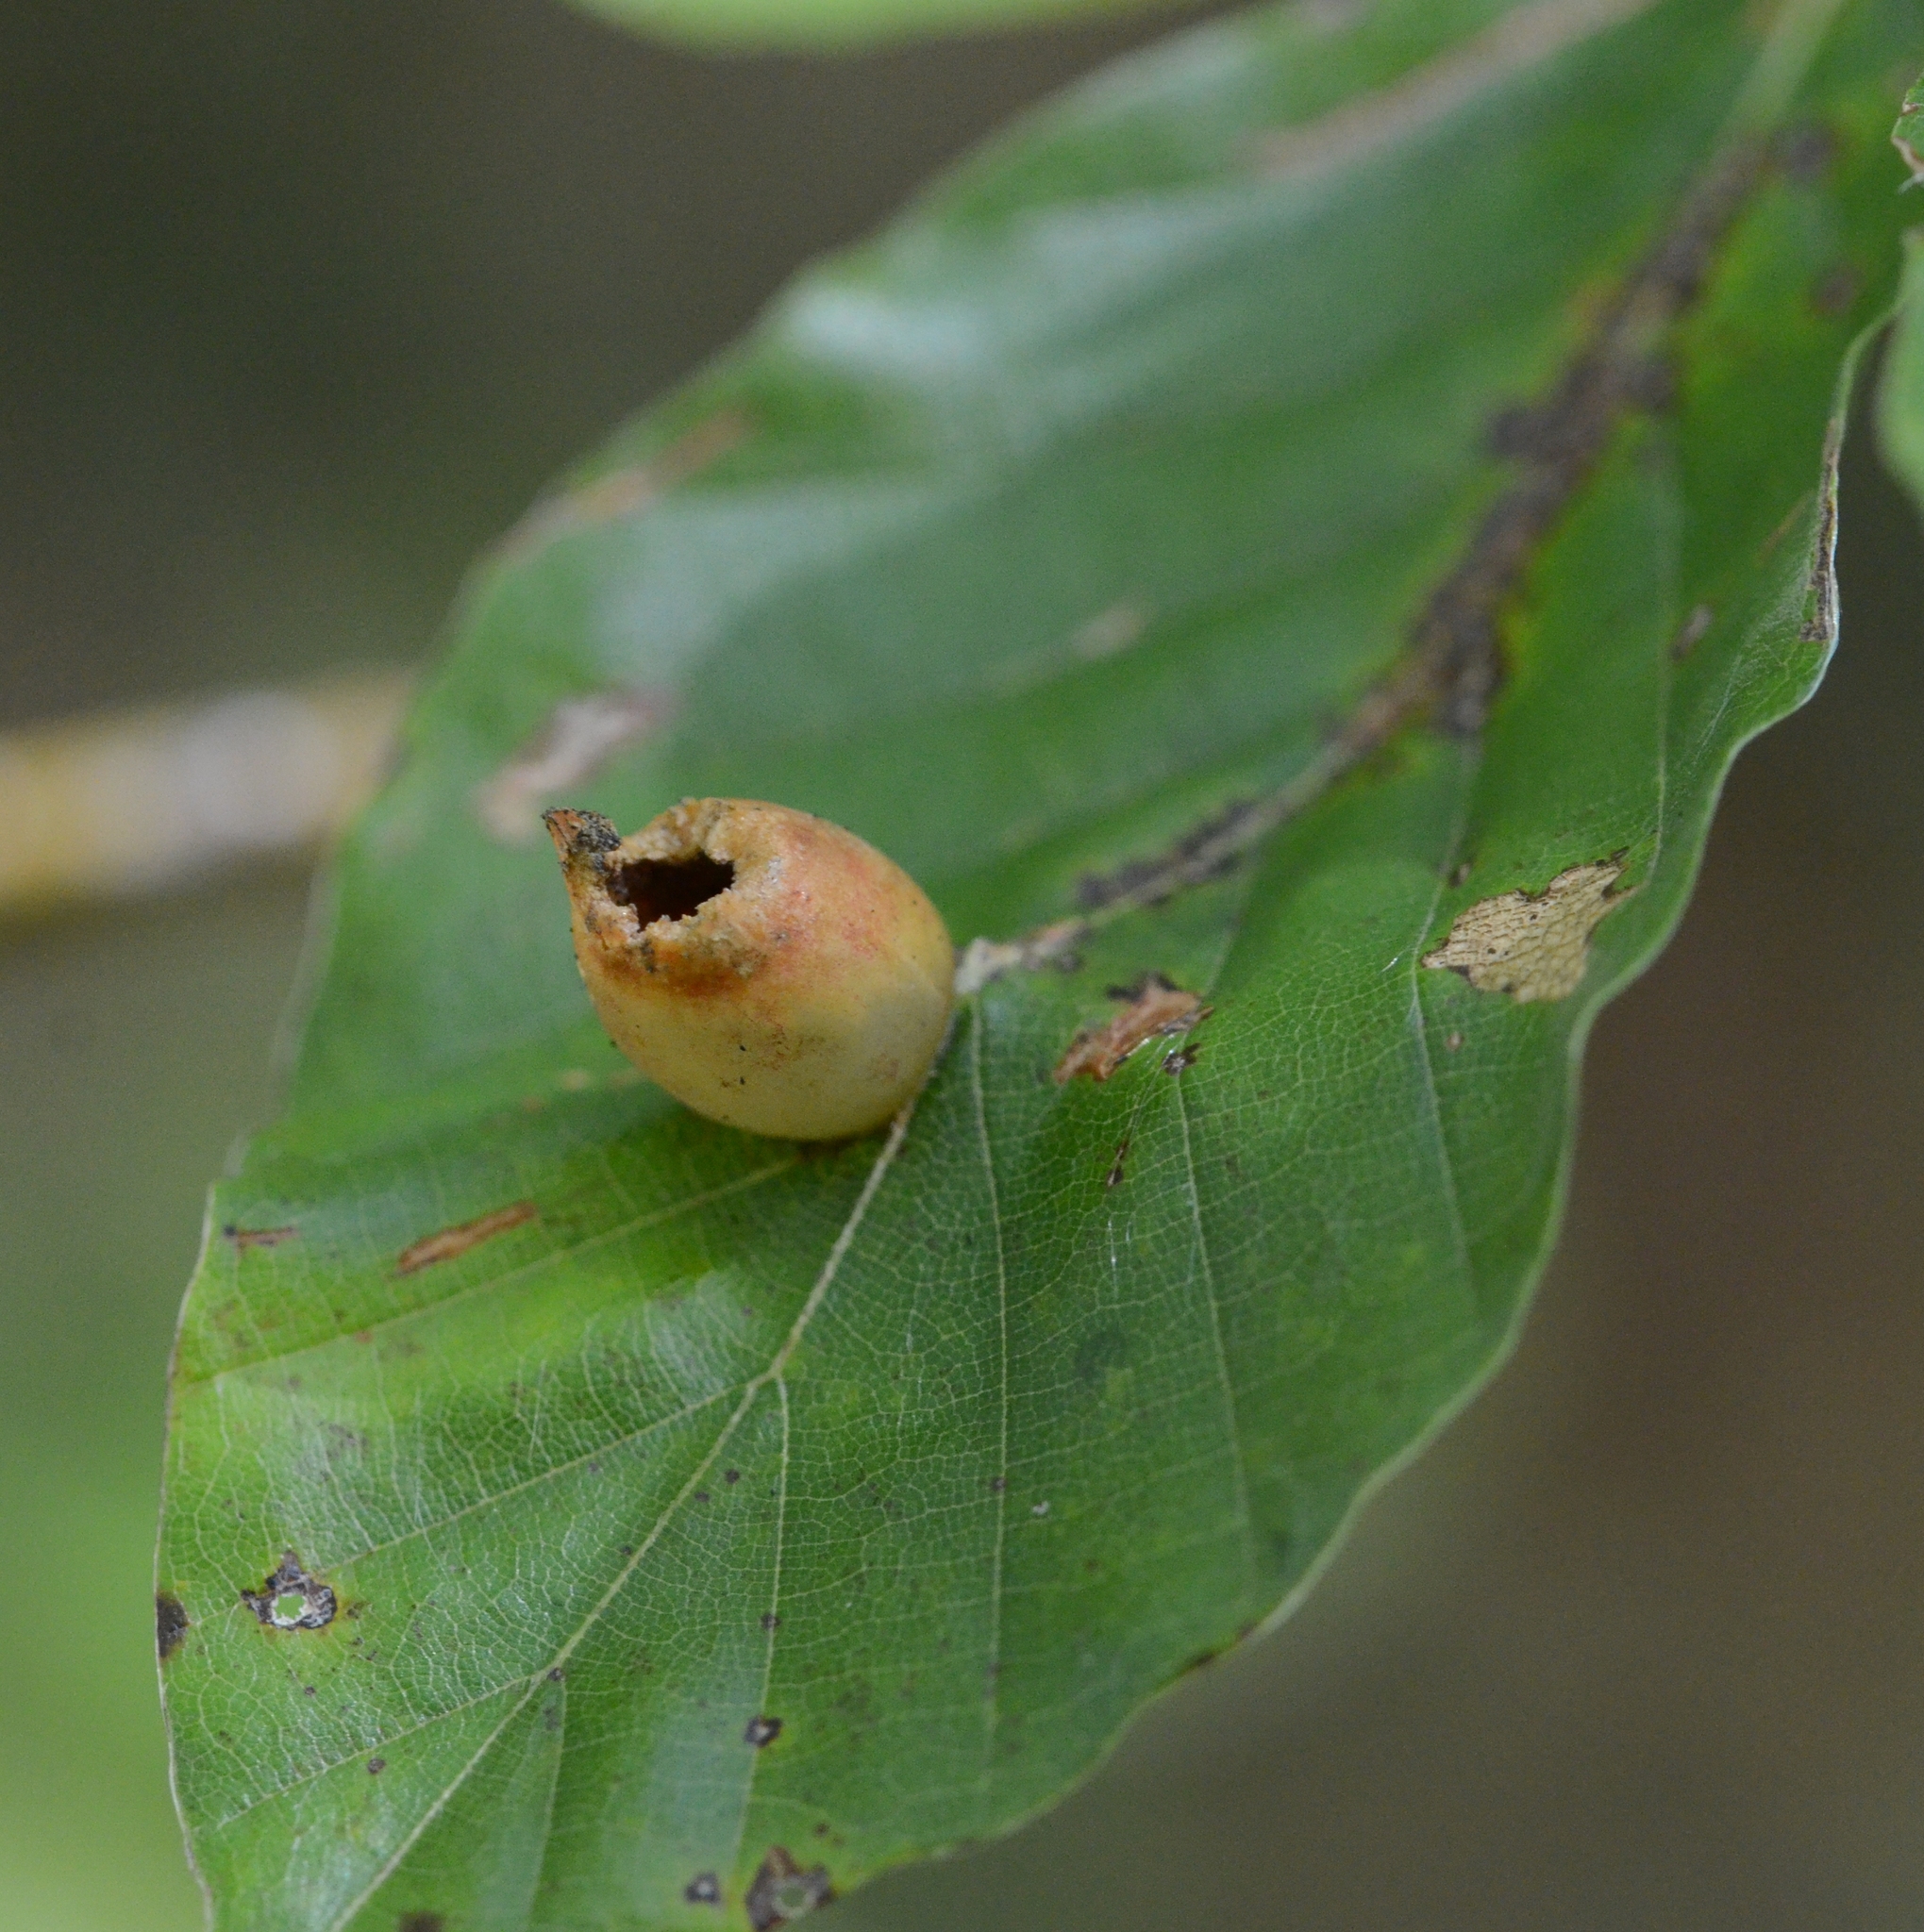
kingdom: Animalia
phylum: Arthropoda
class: Insecta
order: Diptera
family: Cecidomyiidae
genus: Mikiola
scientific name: Mikiola fagi
